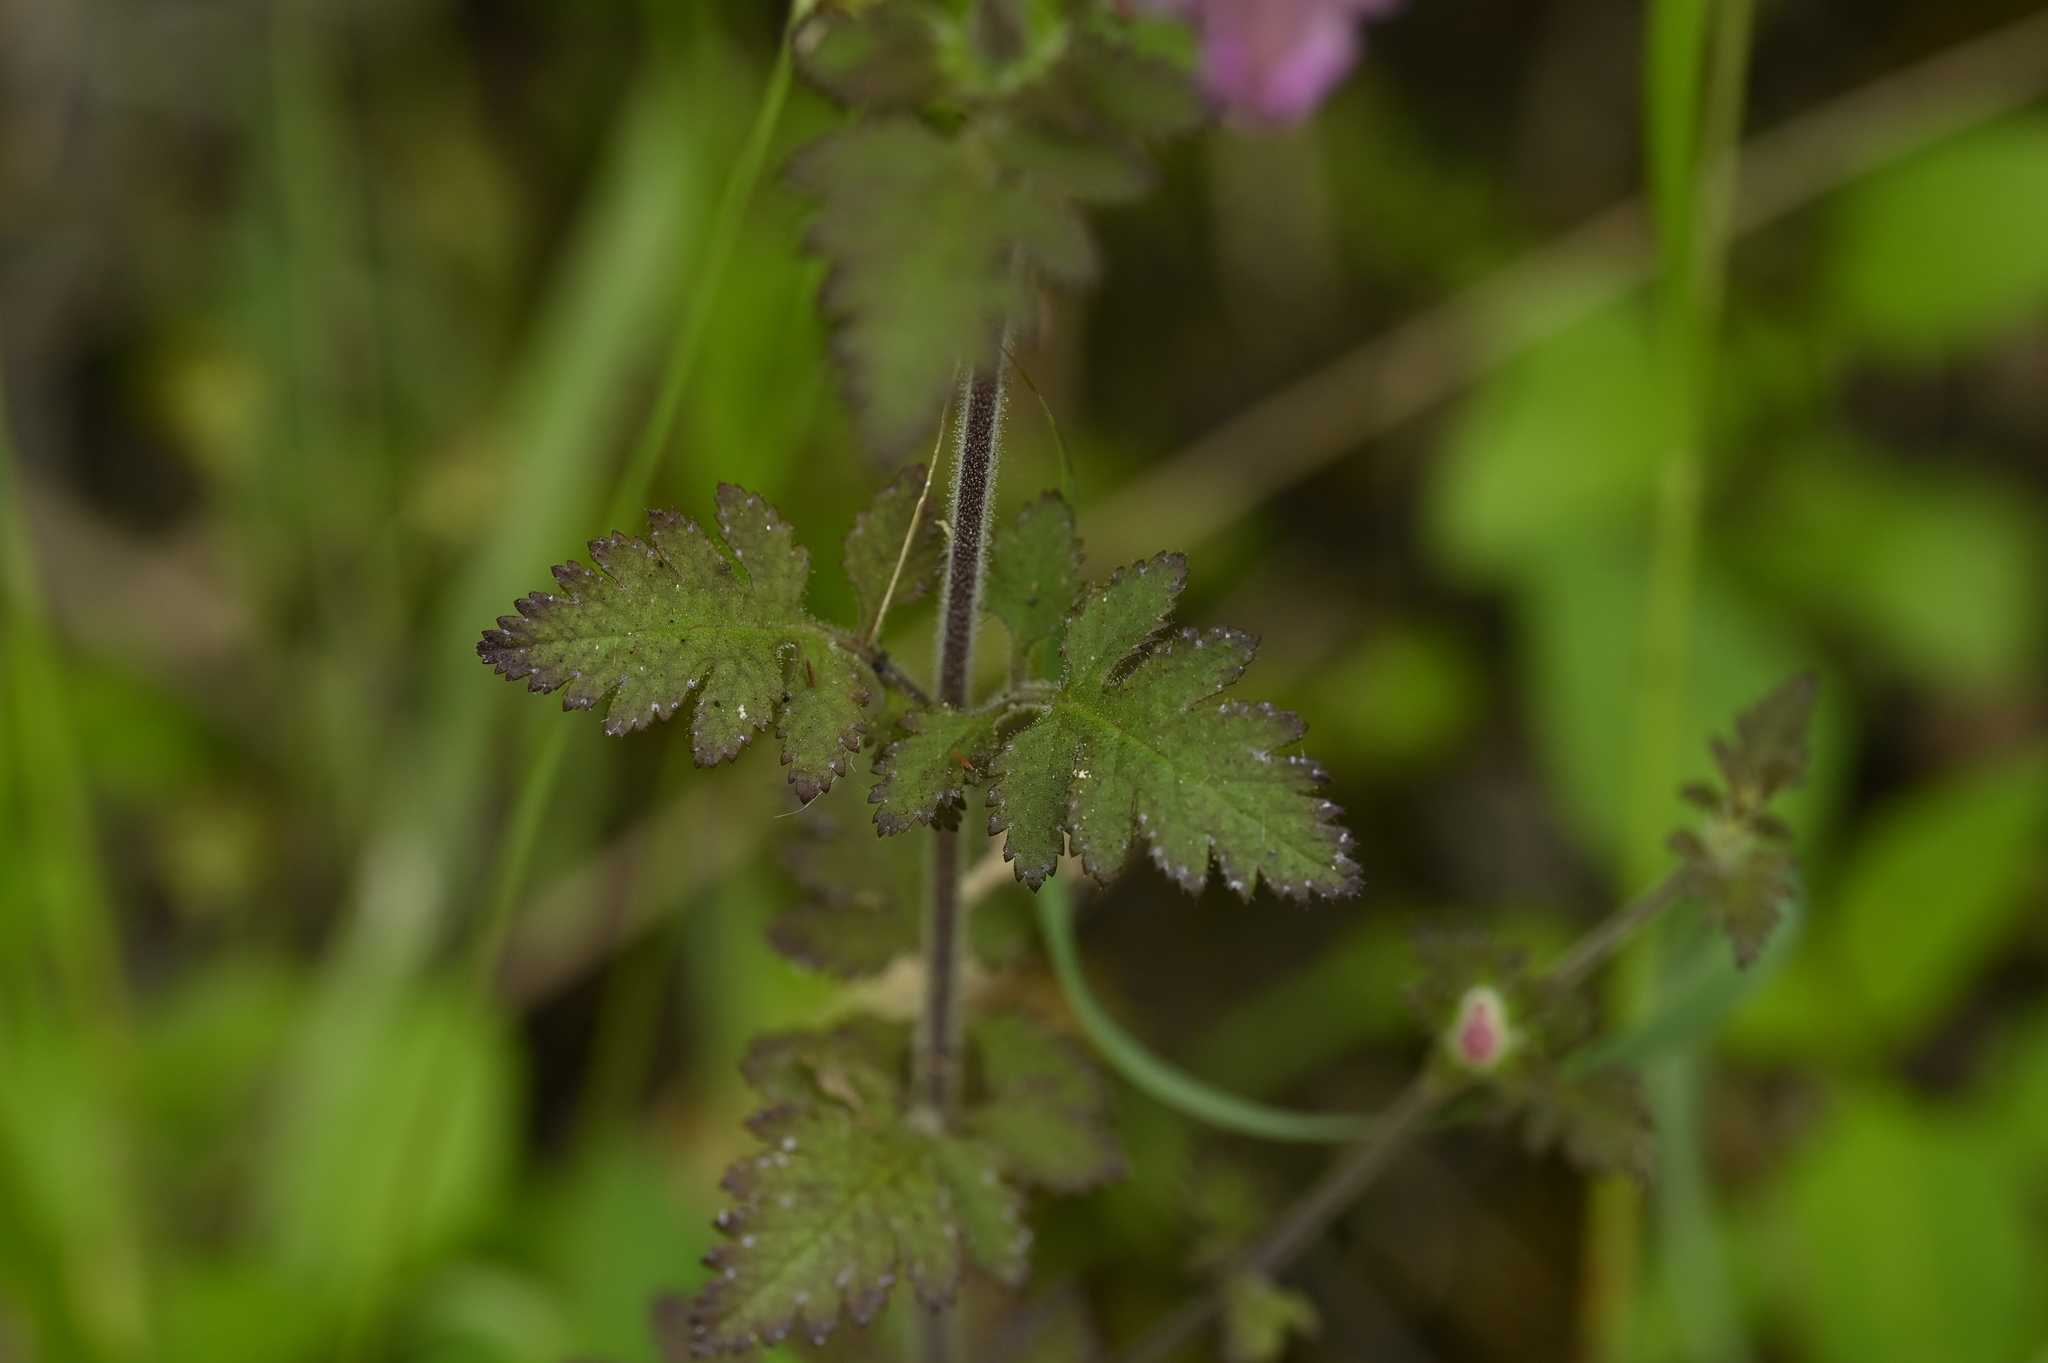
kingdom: Plantae
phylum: Tracheophyta
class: Magnoliopsida
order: Lamiales
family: Orobanchaceae
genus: Phtheirospermum
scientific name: Phtheirospermum japonicum
